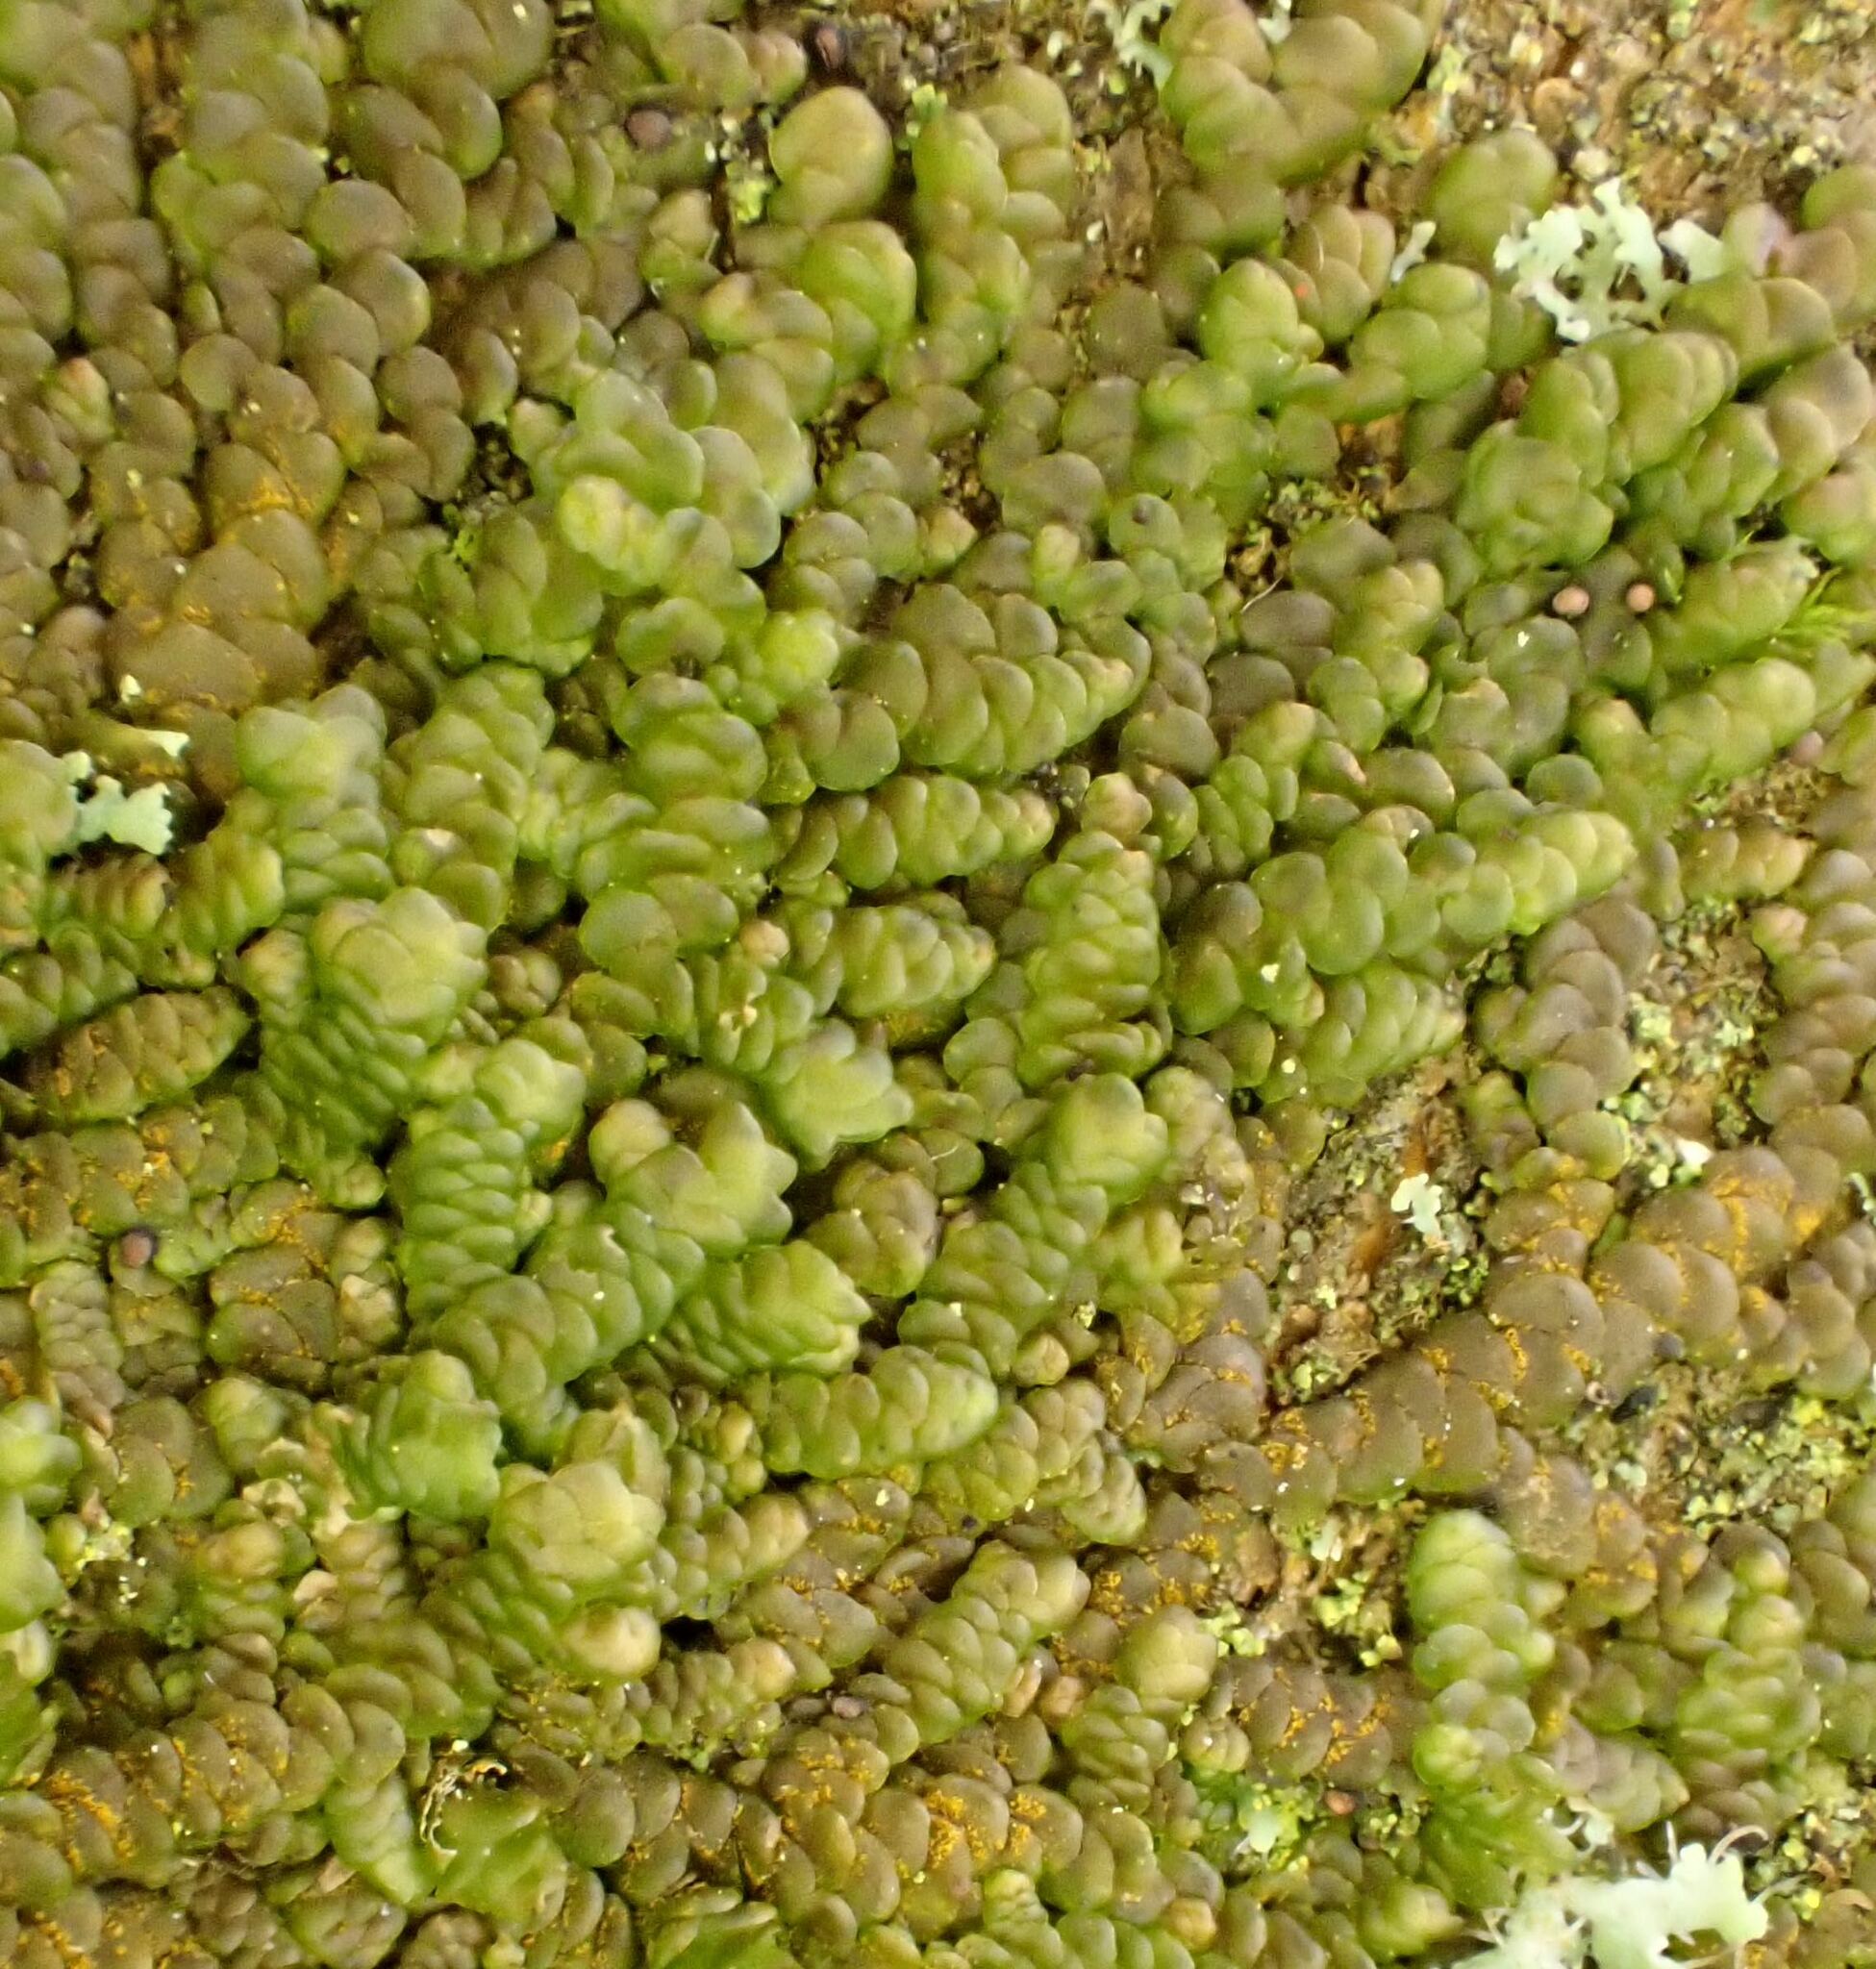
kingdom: Plantae
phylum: Marchantiophyta
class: Jungermanniopsida
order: Porellales
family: Radulaceae
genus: Radula
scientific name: Radula complanata
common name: Flat-leaved scalewort
